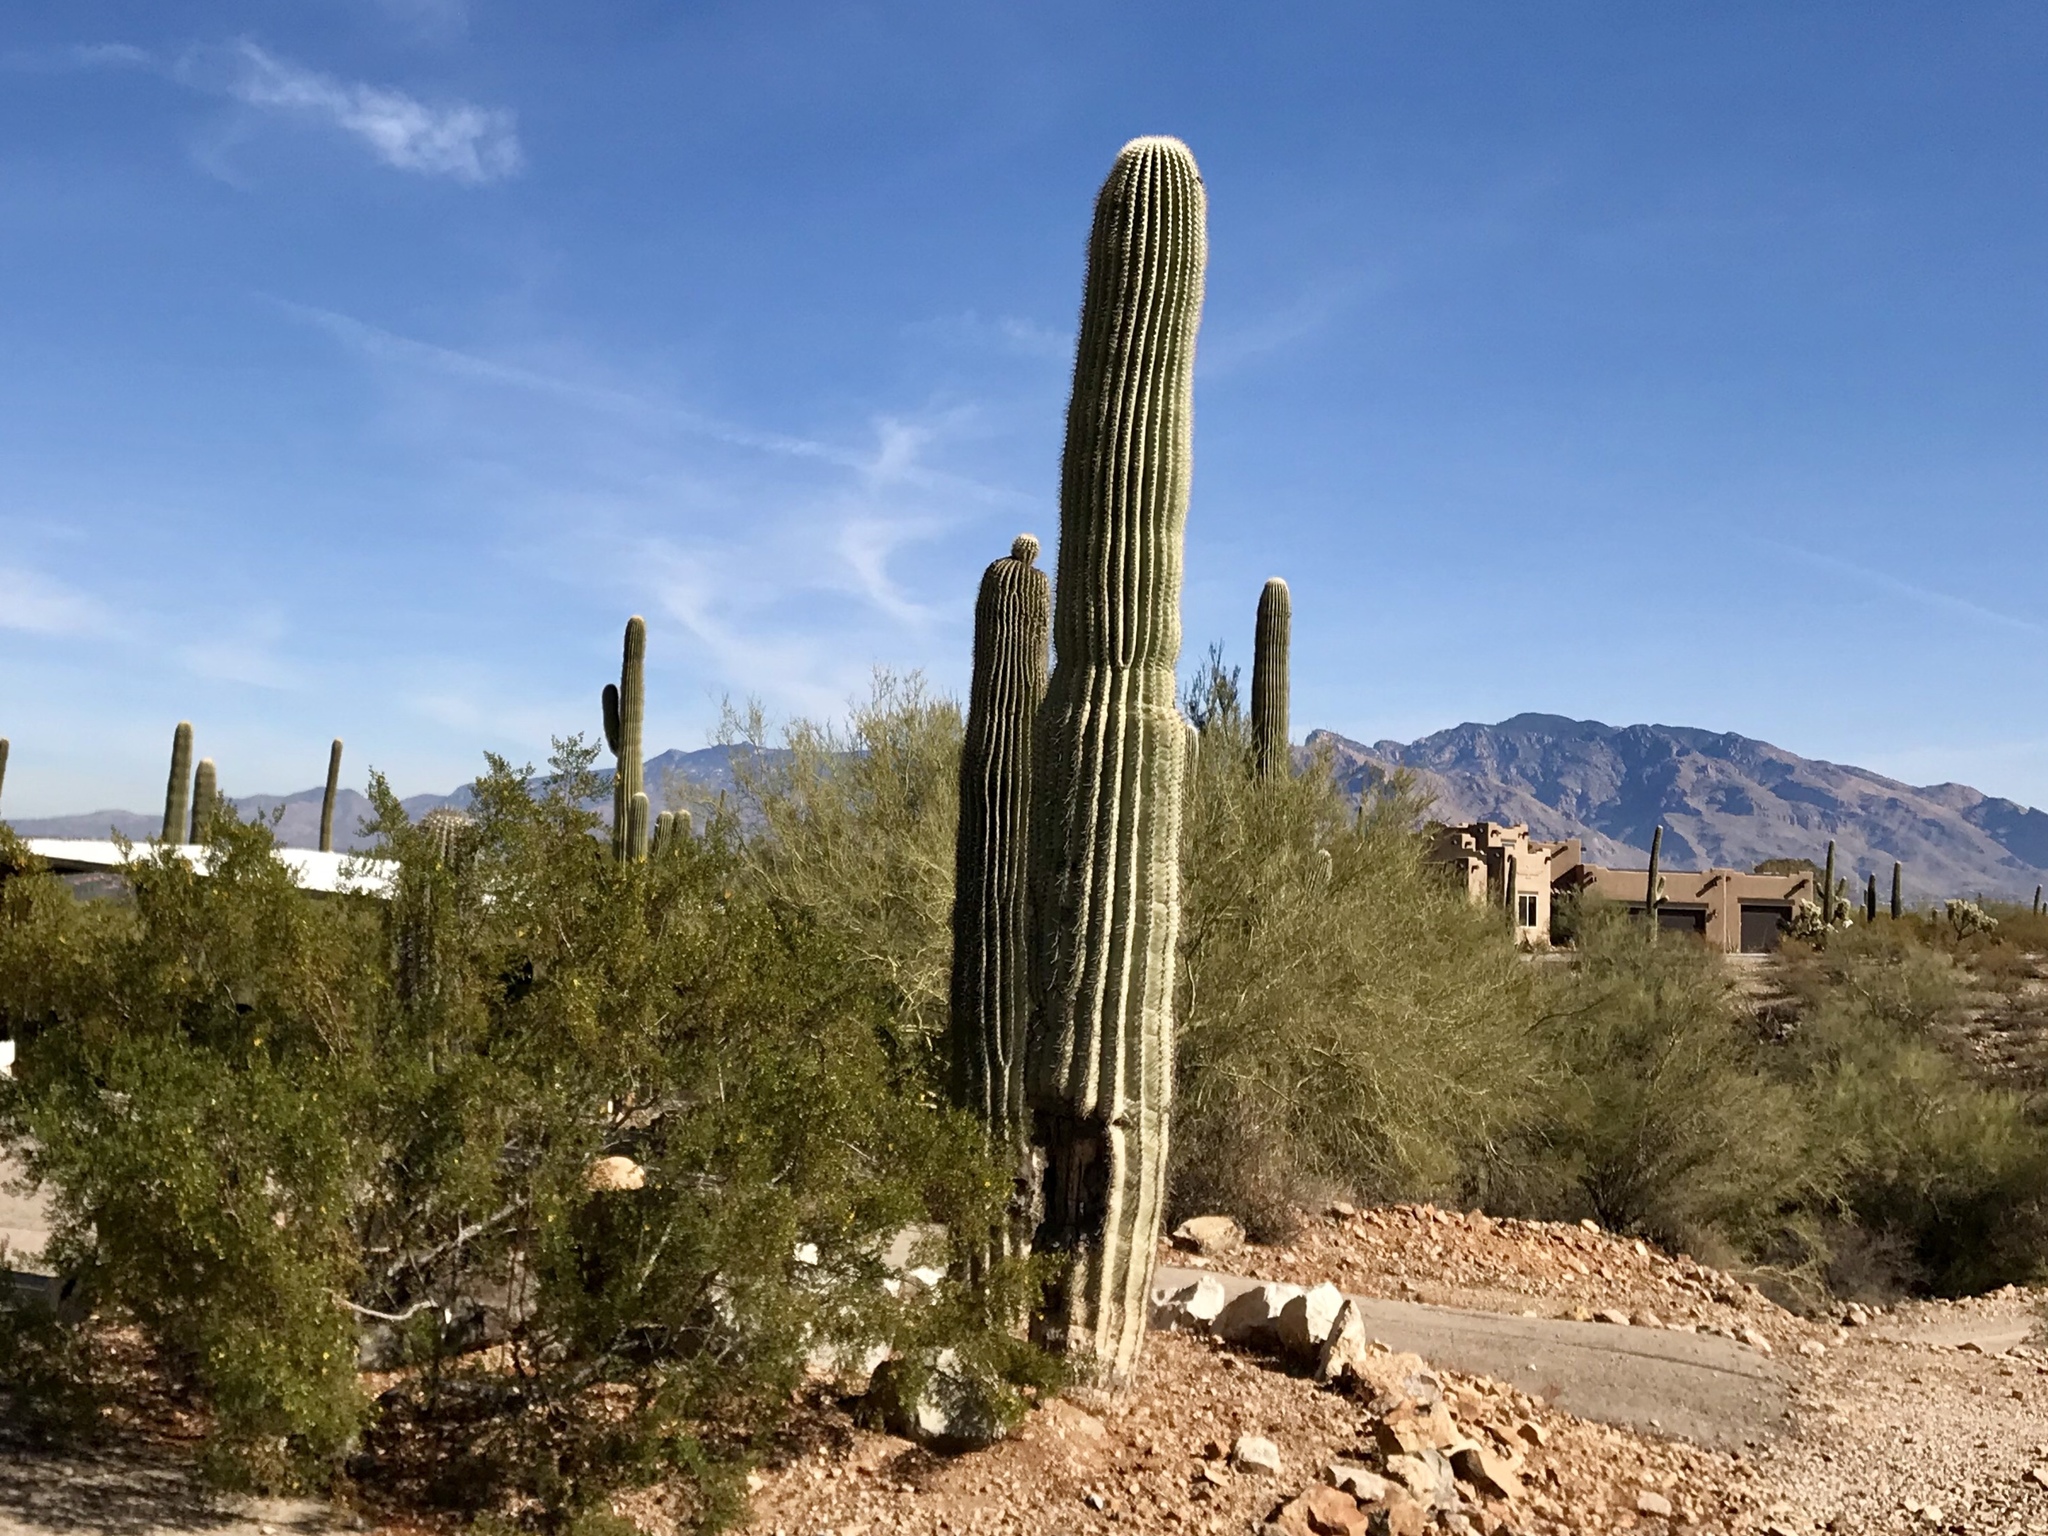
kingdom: Plantae
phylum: Tracheophyta
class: Magnoliopsida
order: Caryophyllales
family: Cactaceae
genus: Carnegiea
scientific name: Carnegiea gigantea
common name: Saguaro
